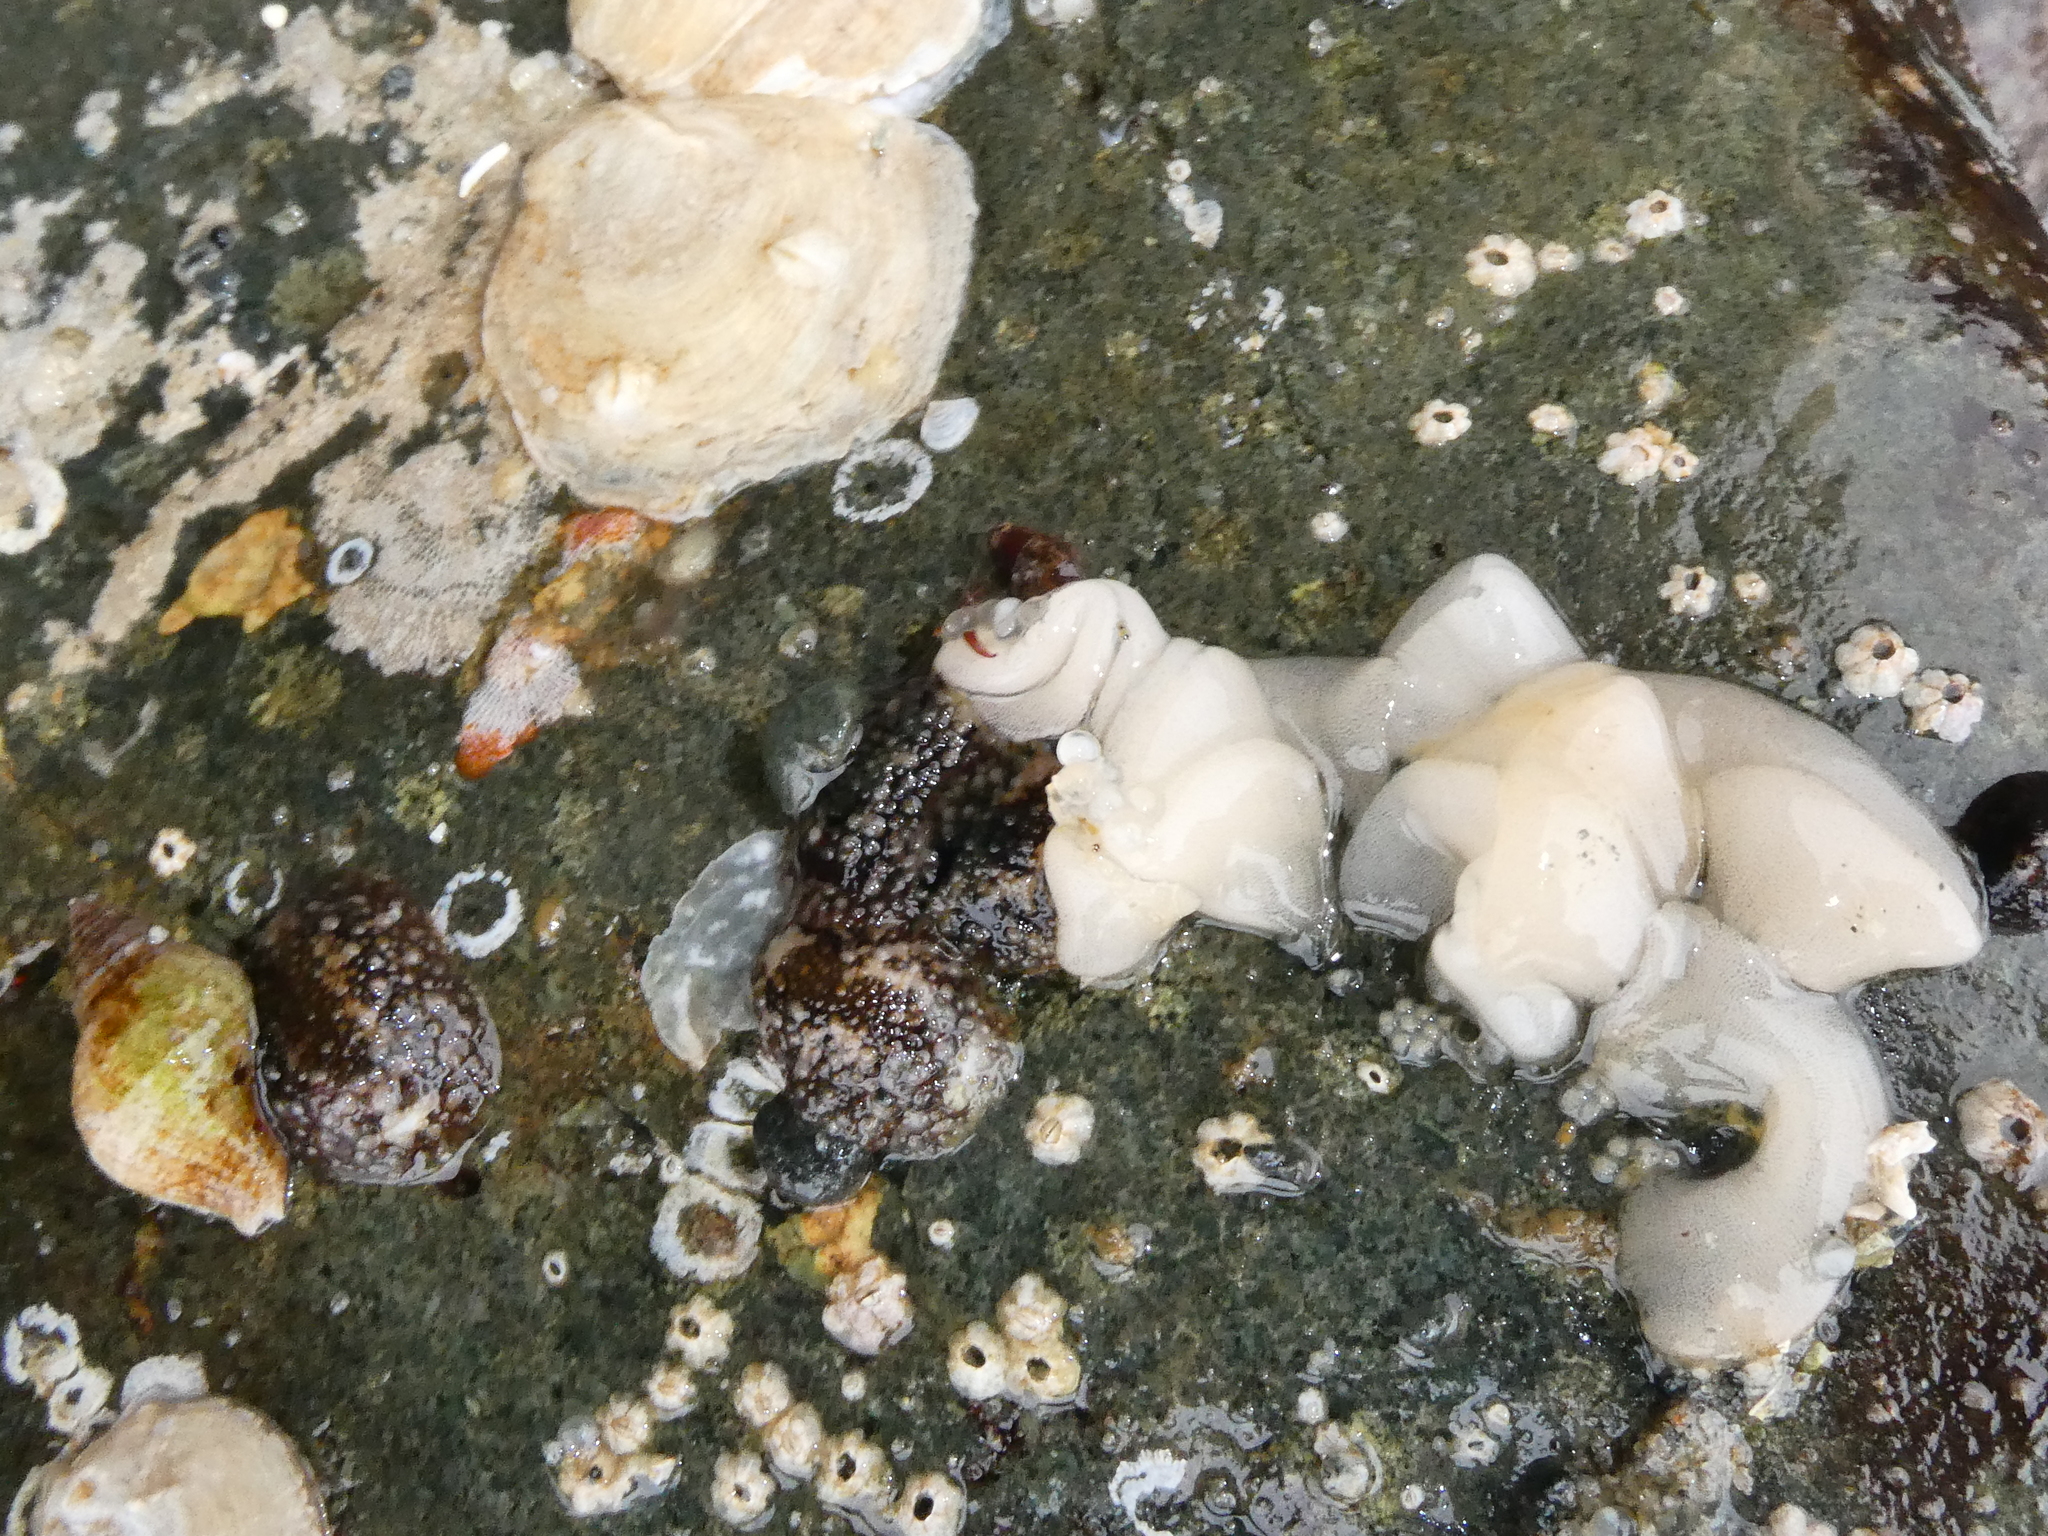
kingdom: Animalia
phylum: Mollusca
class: Gastropoda
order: Nudibranchia
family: Onchidorididae
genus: Onchidoris
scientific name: Onchidoris bilamellata
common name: Barnacle-eating onchidoris
